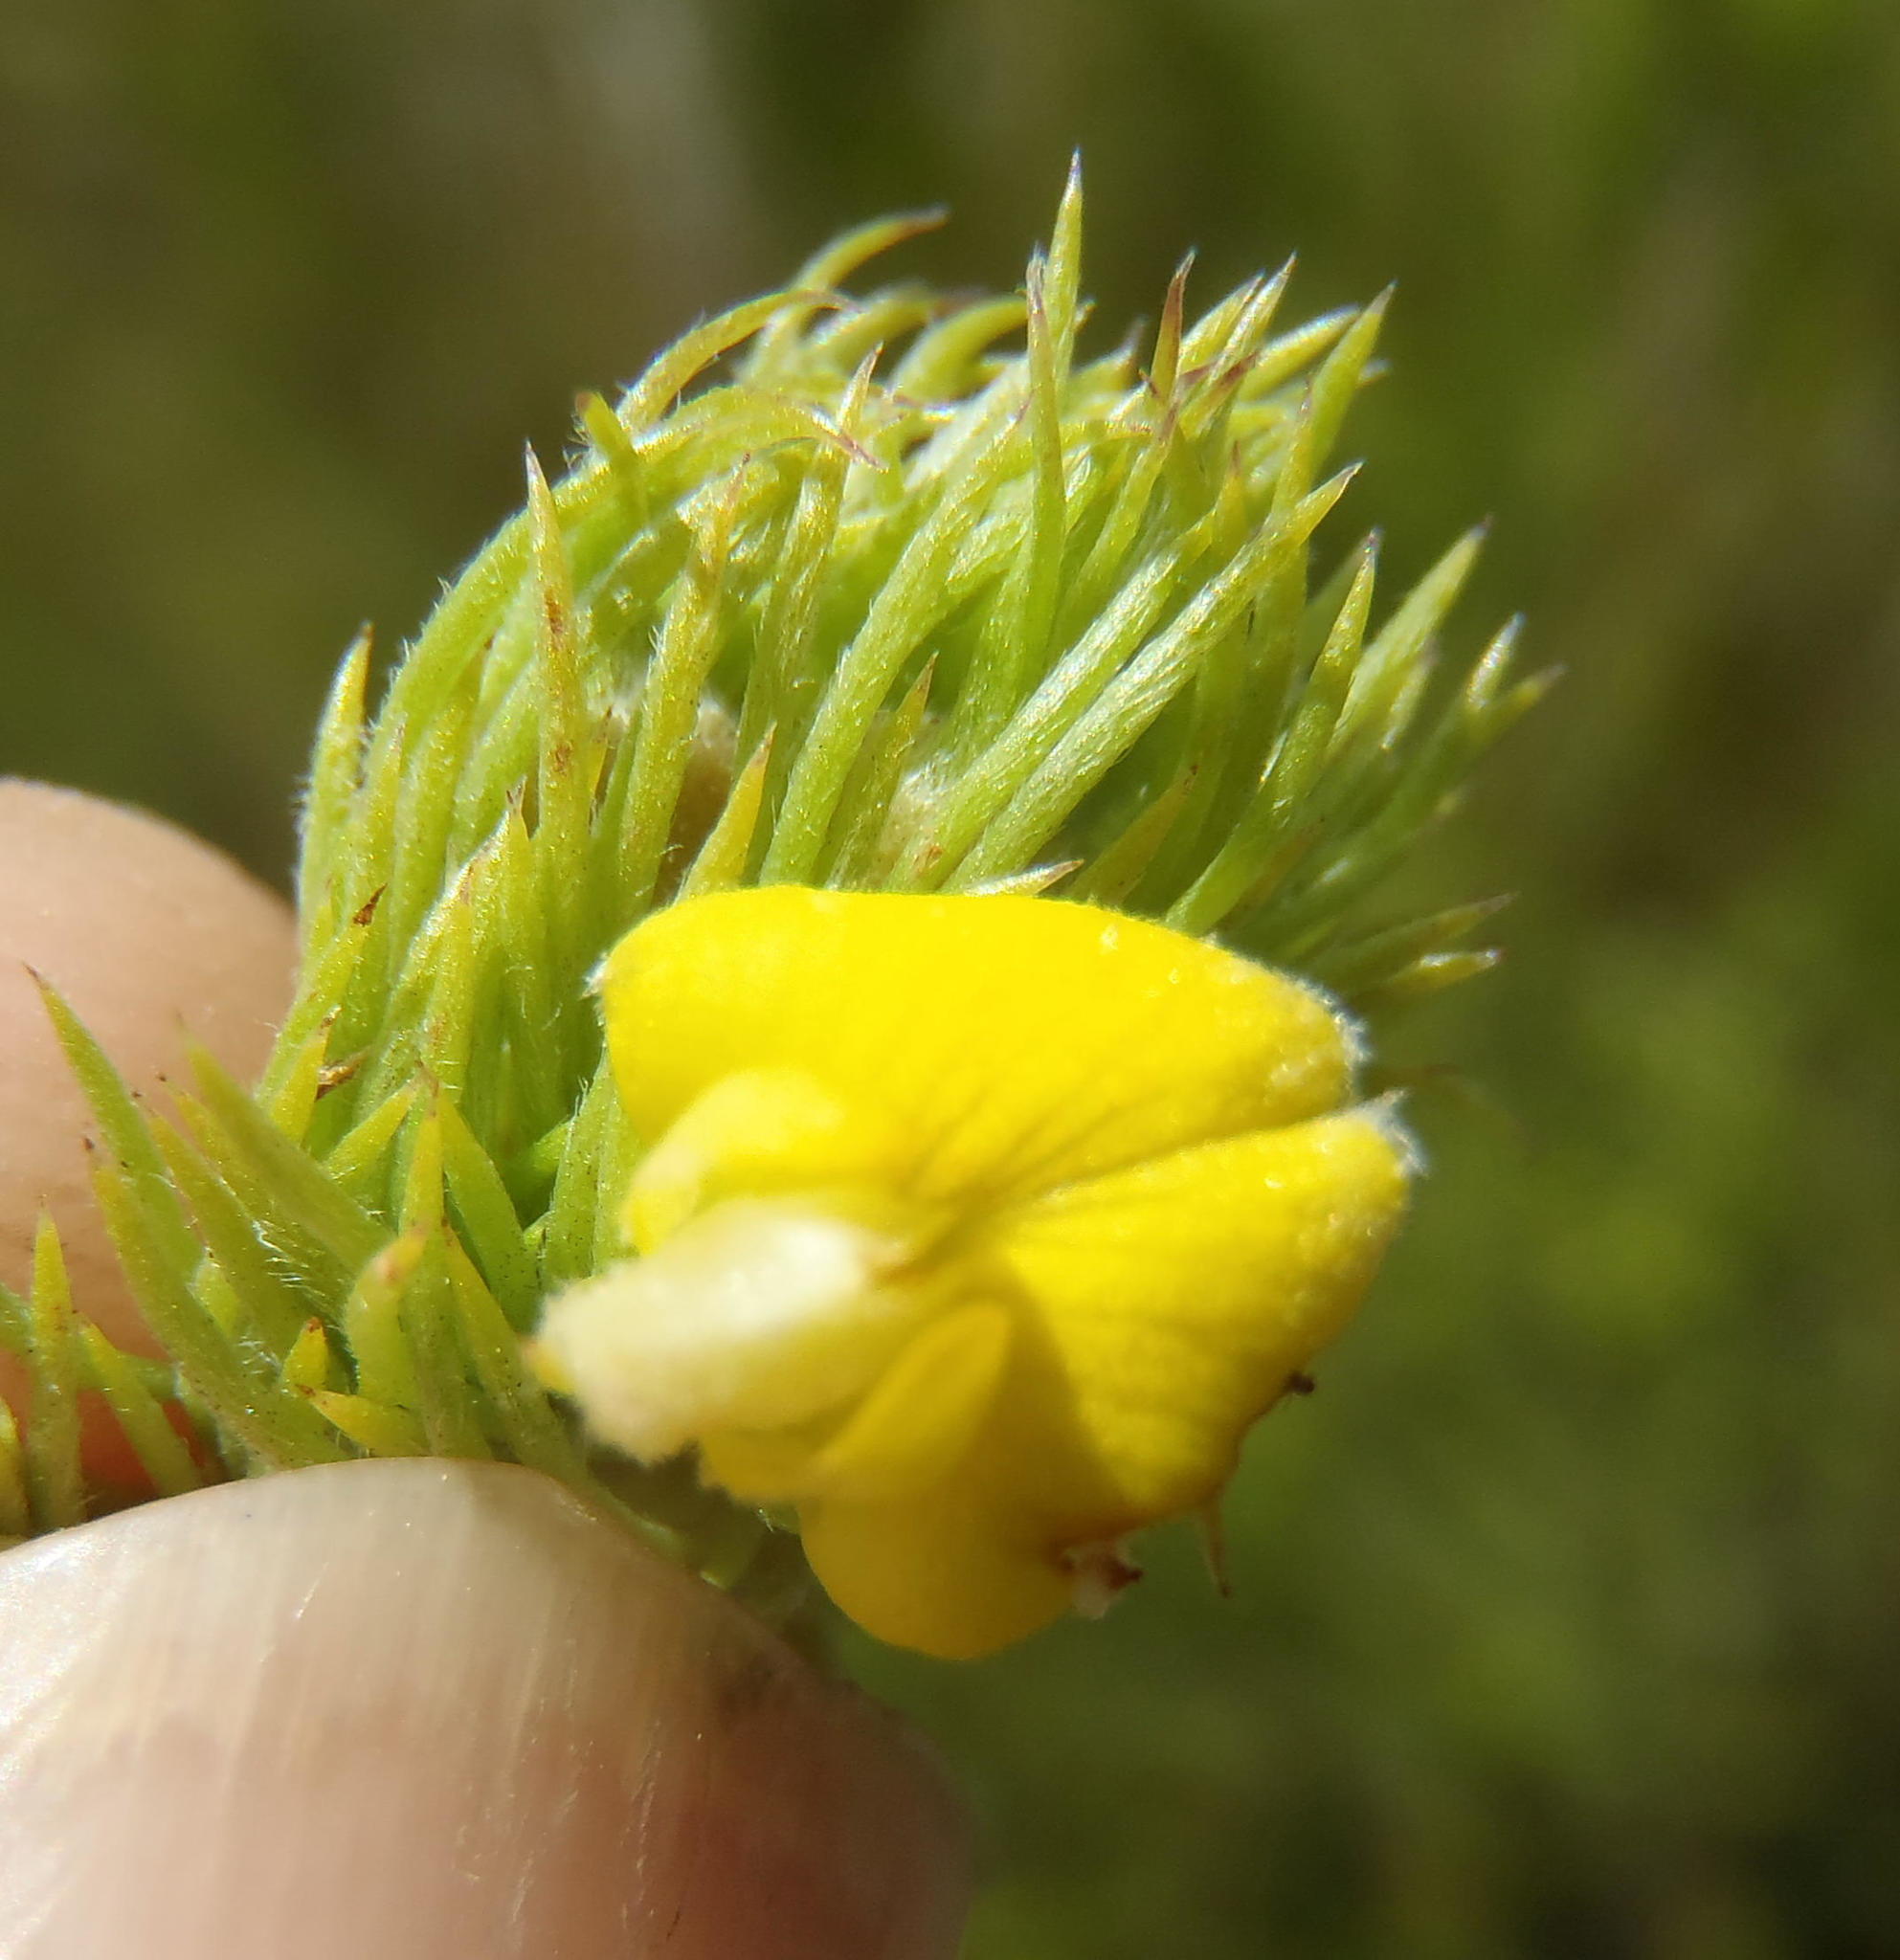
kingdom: Plantae
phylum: Tracheophyta
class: Magnoliopsida
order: Fabales
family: Fabaceae
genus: Aspalathus
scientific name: Aspalathus setacea
